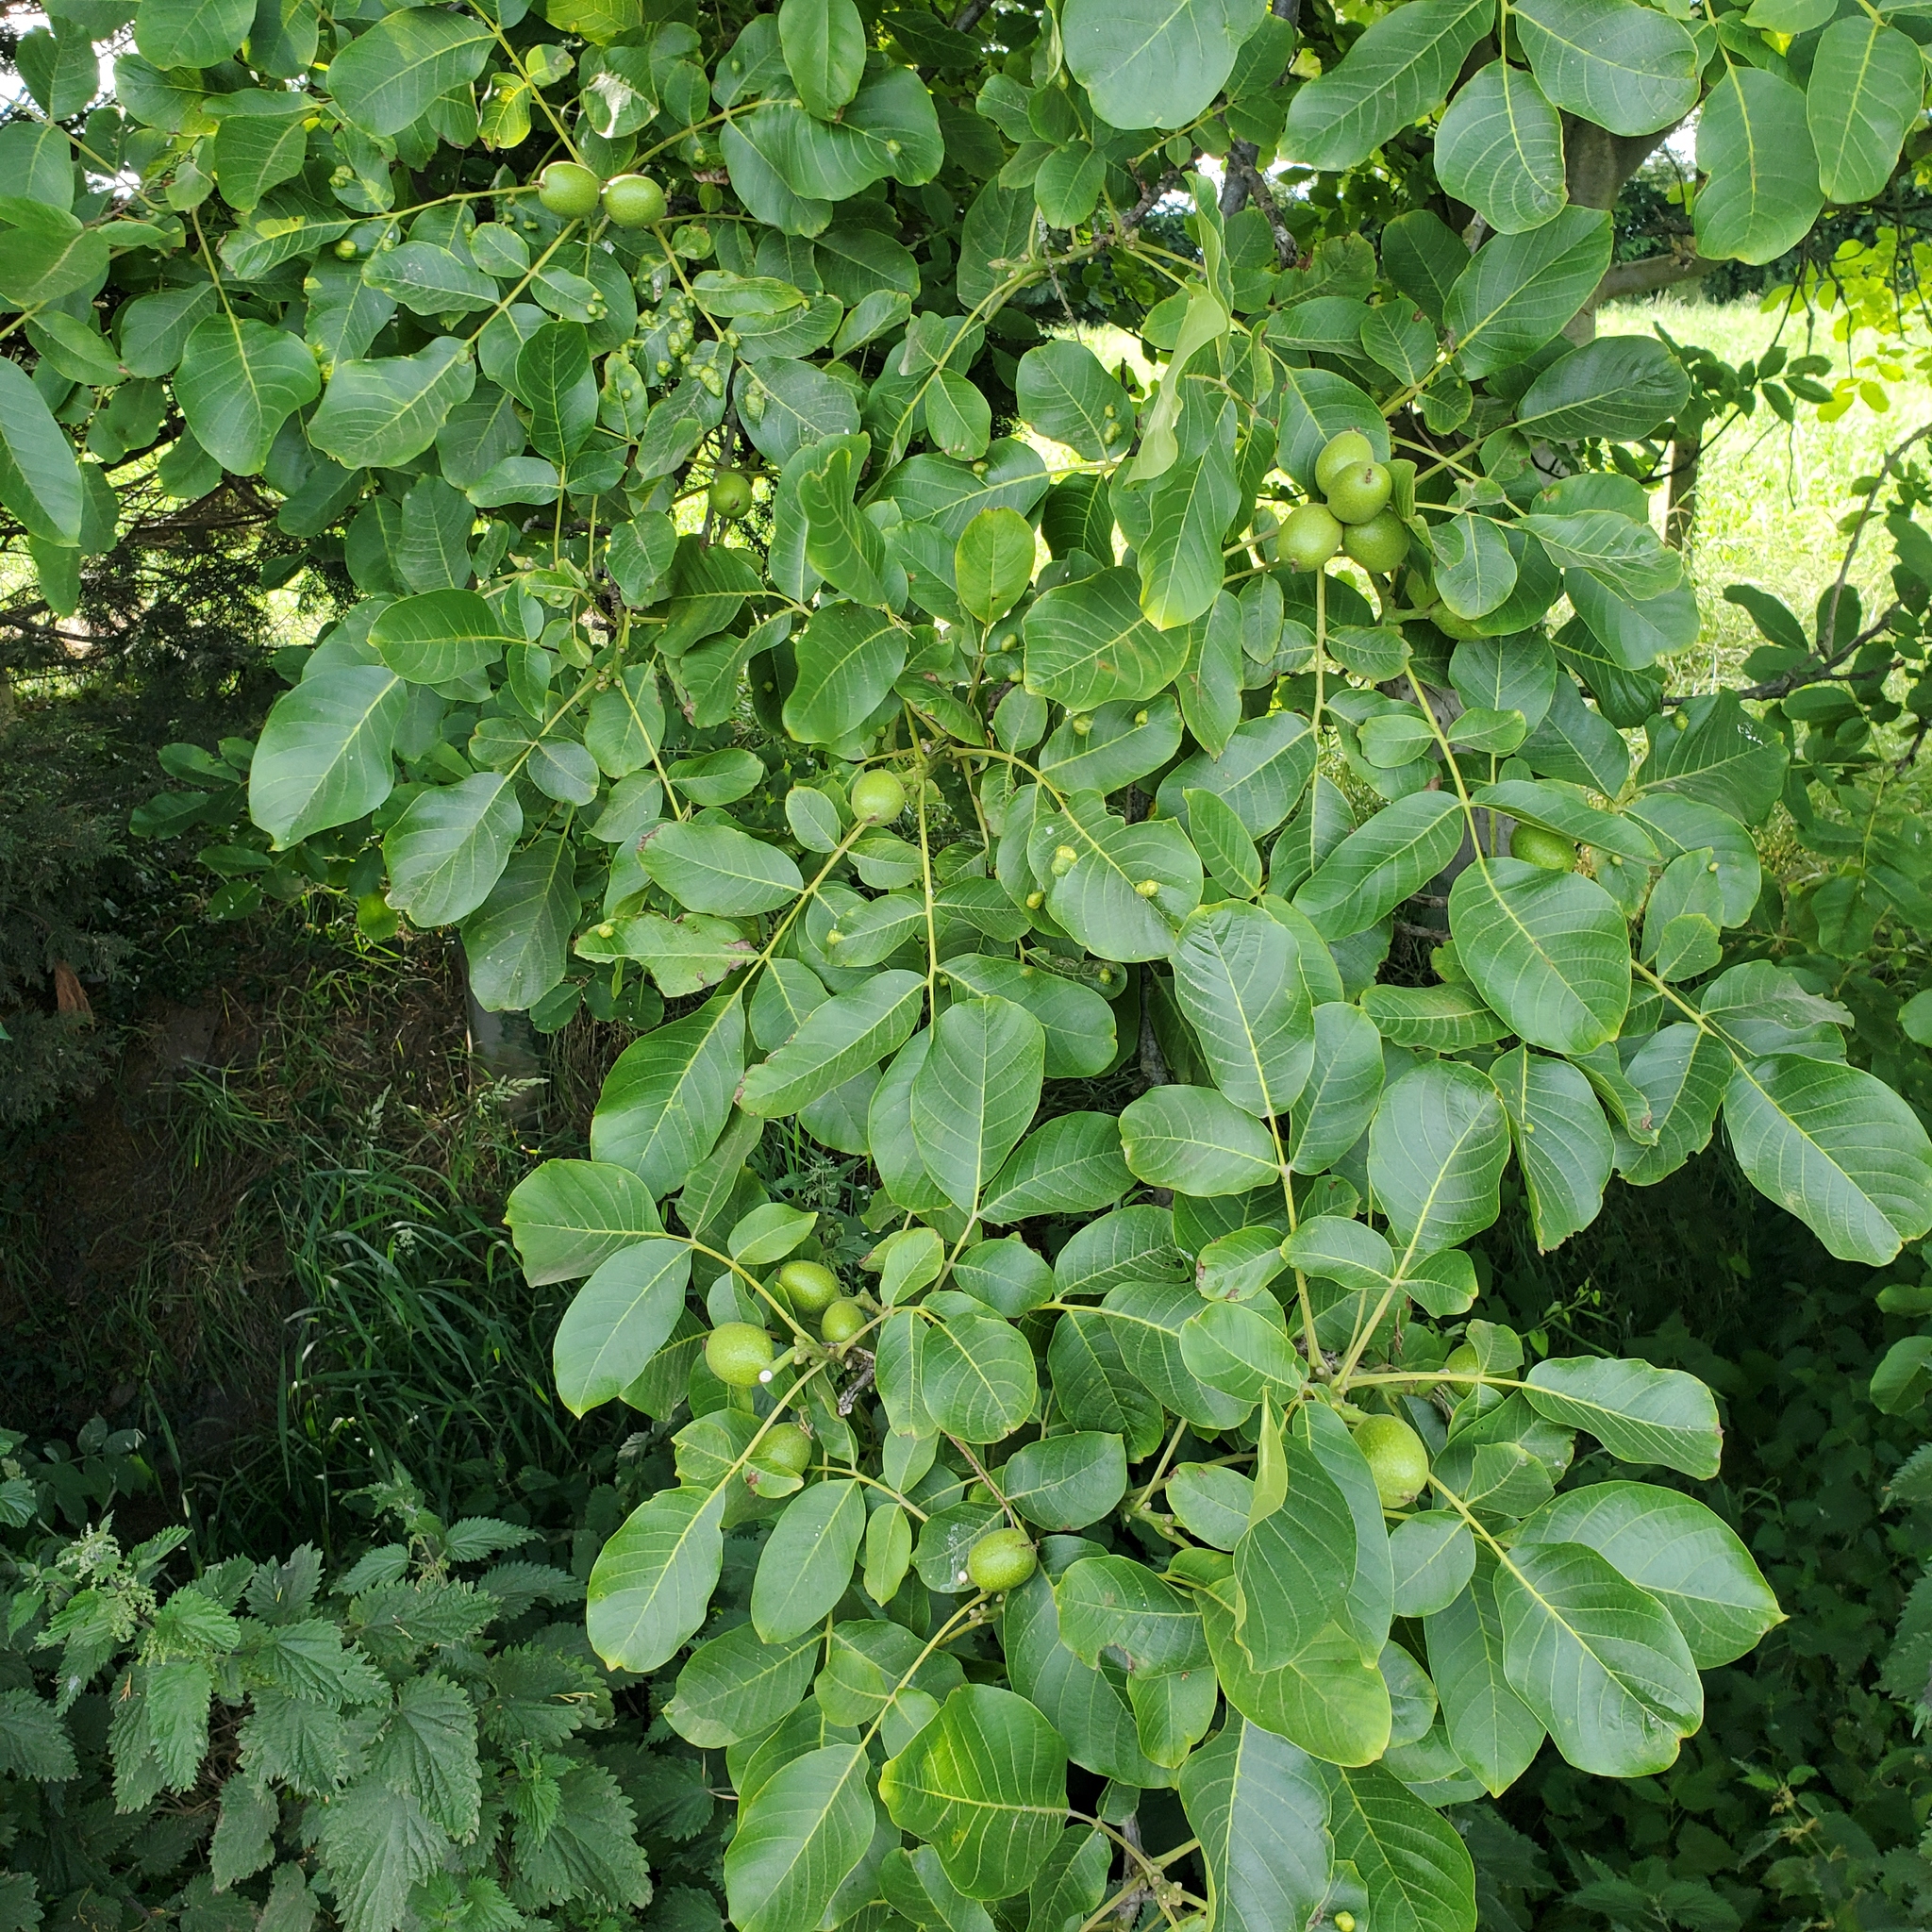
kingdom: Plantae
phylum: Tracheophyta
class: Magnoliopsida
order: Fagales
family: Juglandaceae
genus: Juglans
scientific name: Juglans regia
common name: Walnut
